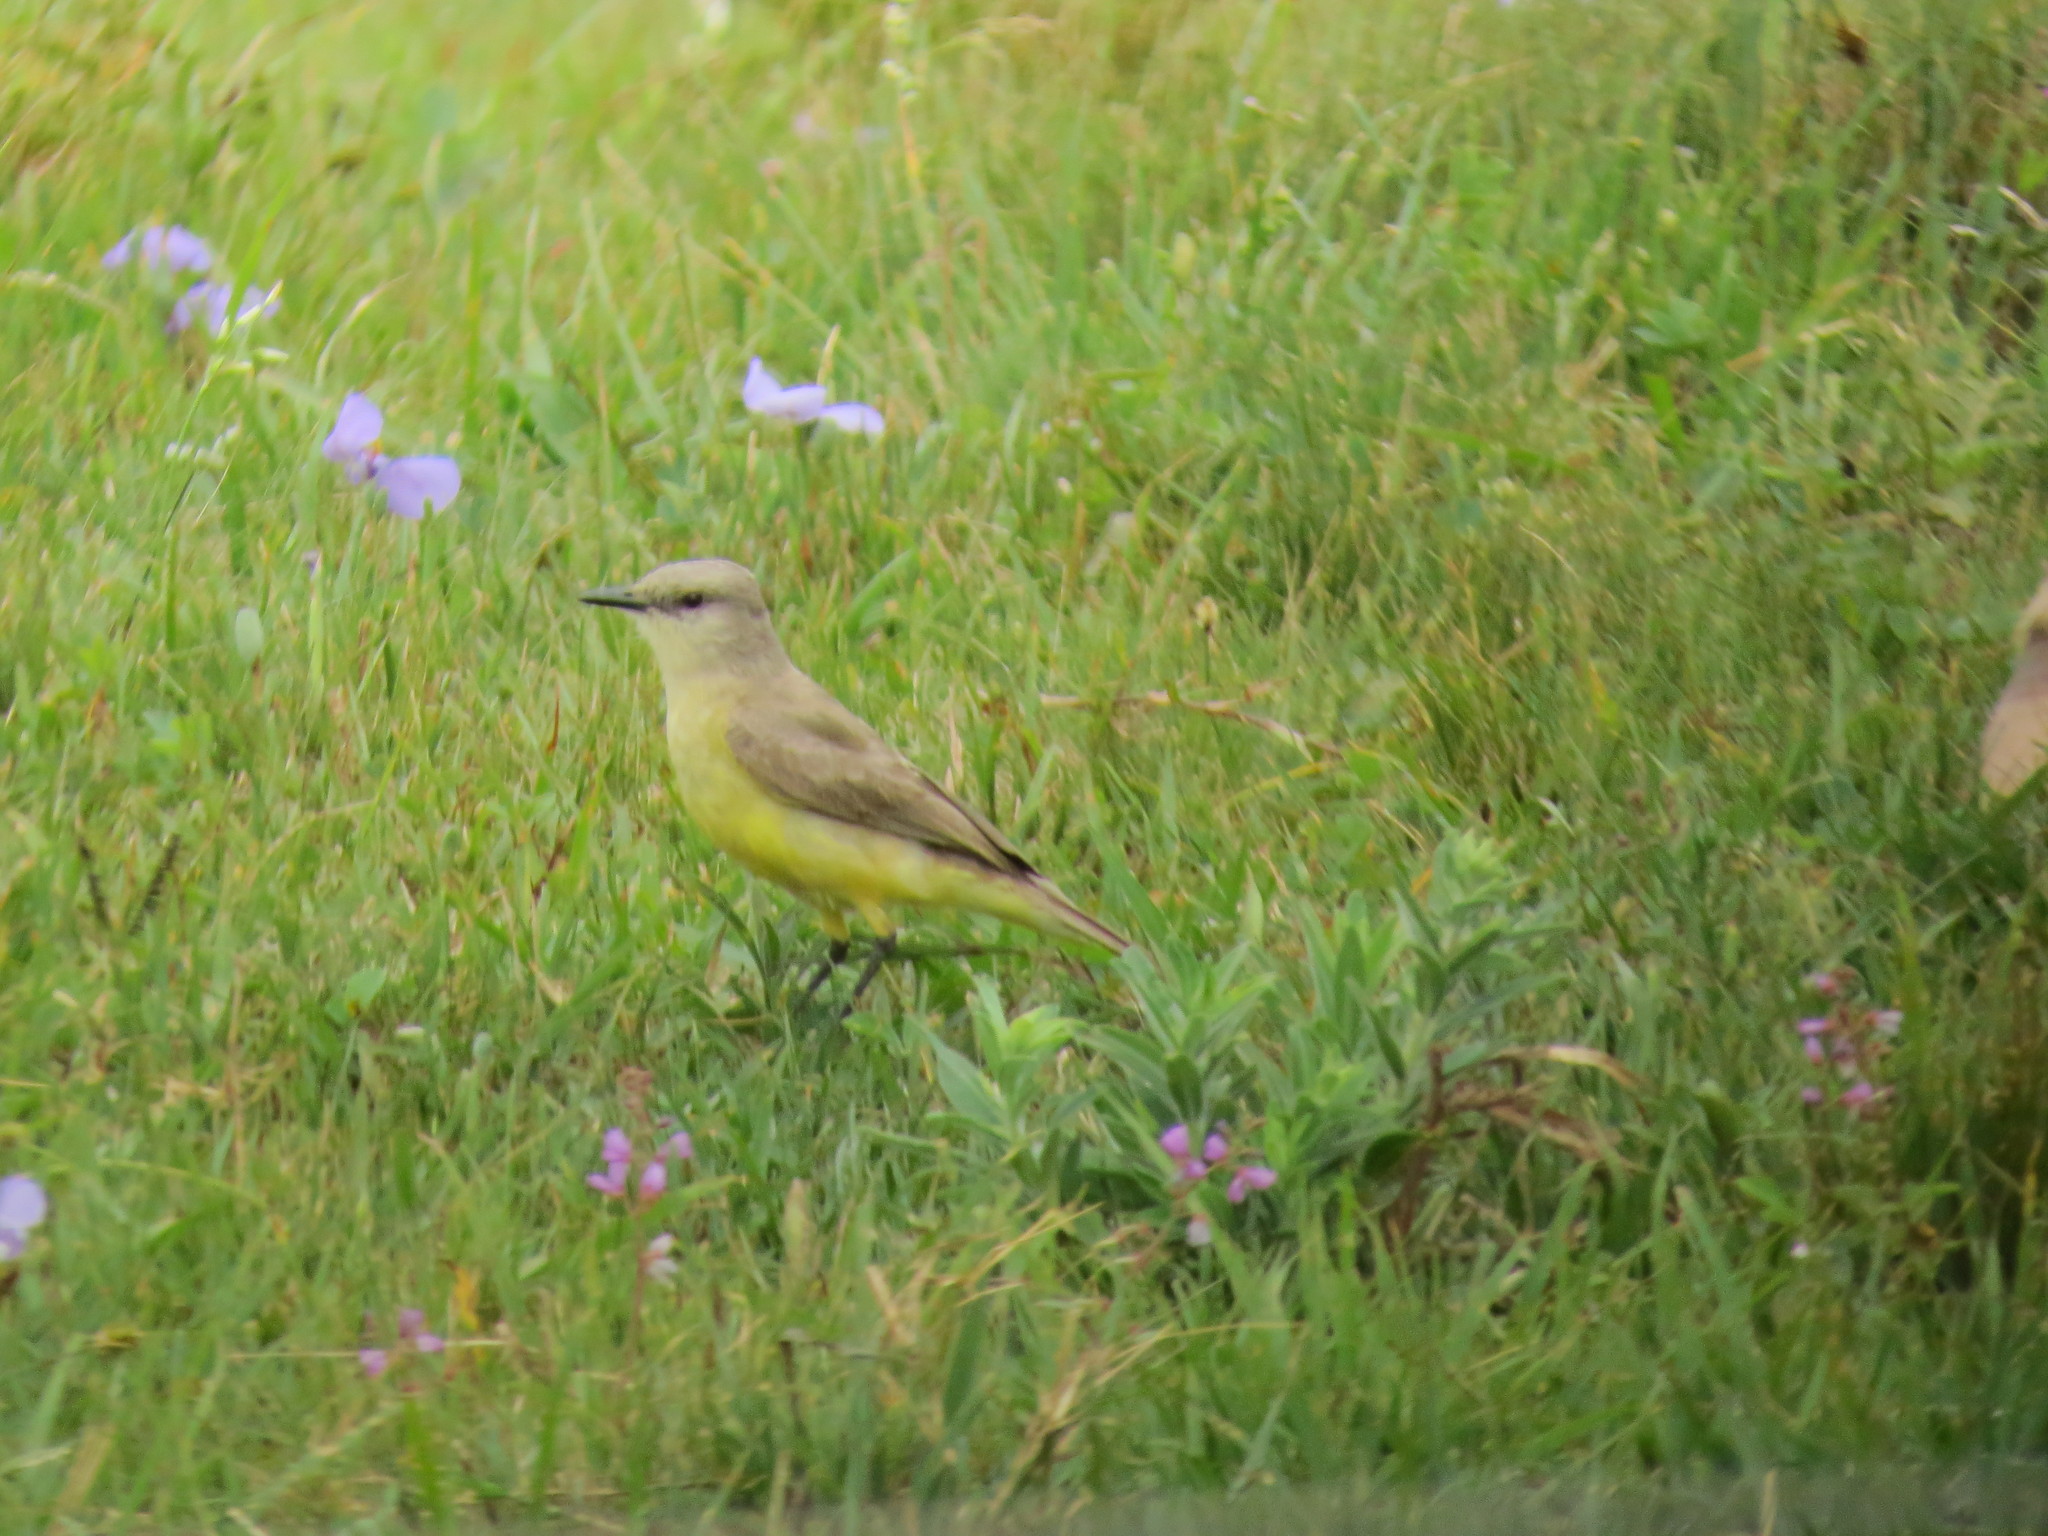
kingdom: Animalia
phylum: Chordata
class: Aves
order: Passeriformes
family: Tyrannidae
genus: Machetornis
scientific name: Machetornis rixosa
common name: Cattle tyrant
